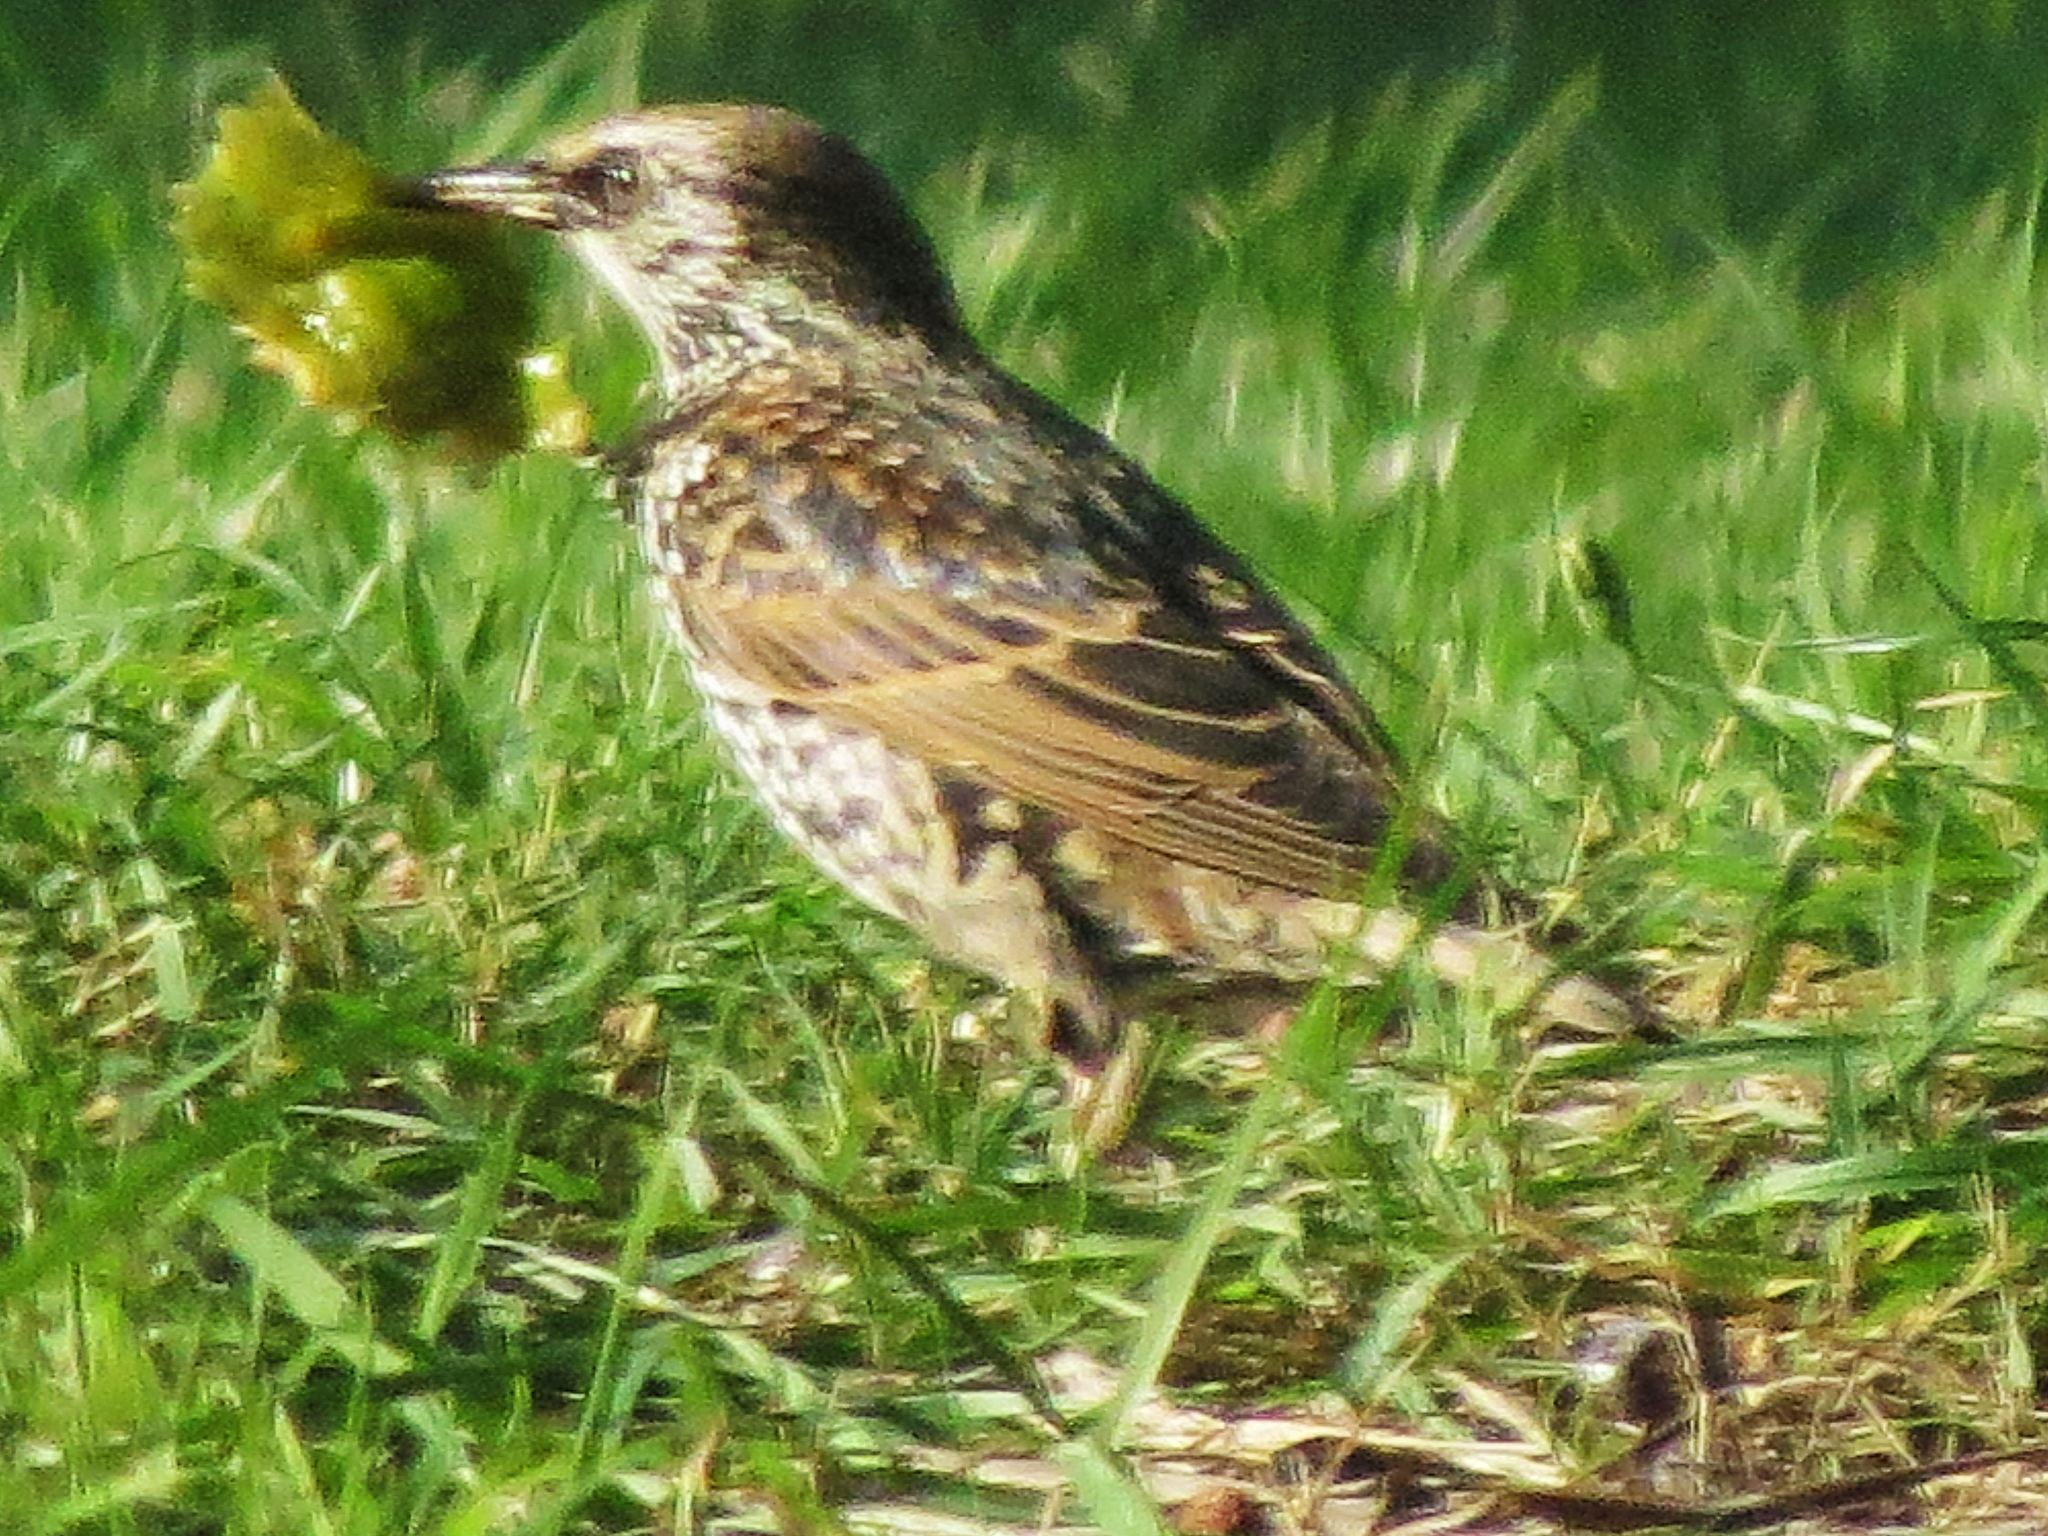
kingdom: Animalia
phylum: Chordata
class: Aves
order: Passeriformes
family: Sturnidae
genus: Sturnus
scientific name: Sturnus vulgaris
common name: Common starling
